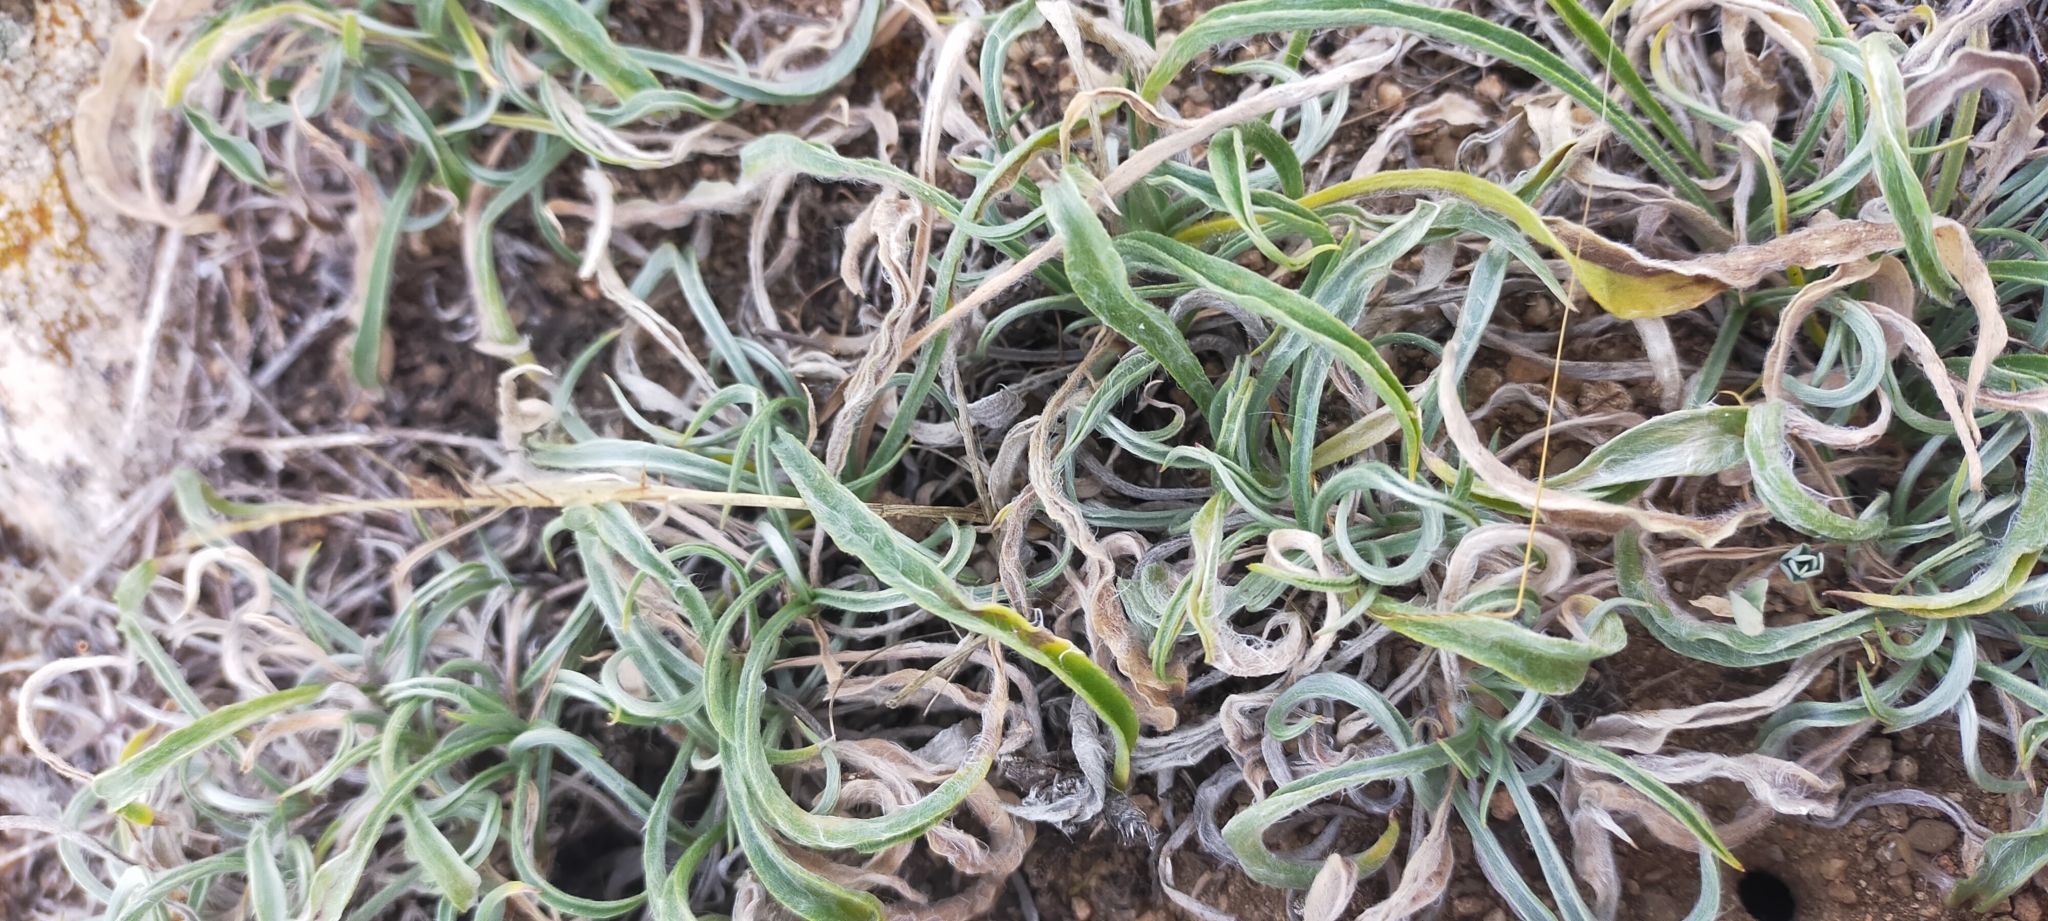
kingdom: Plantae
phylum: Tracheophyta
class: Magnoliopsida
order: Lamiales
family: Plantaginaceae
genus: Plantago
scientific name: Plantago albicans
